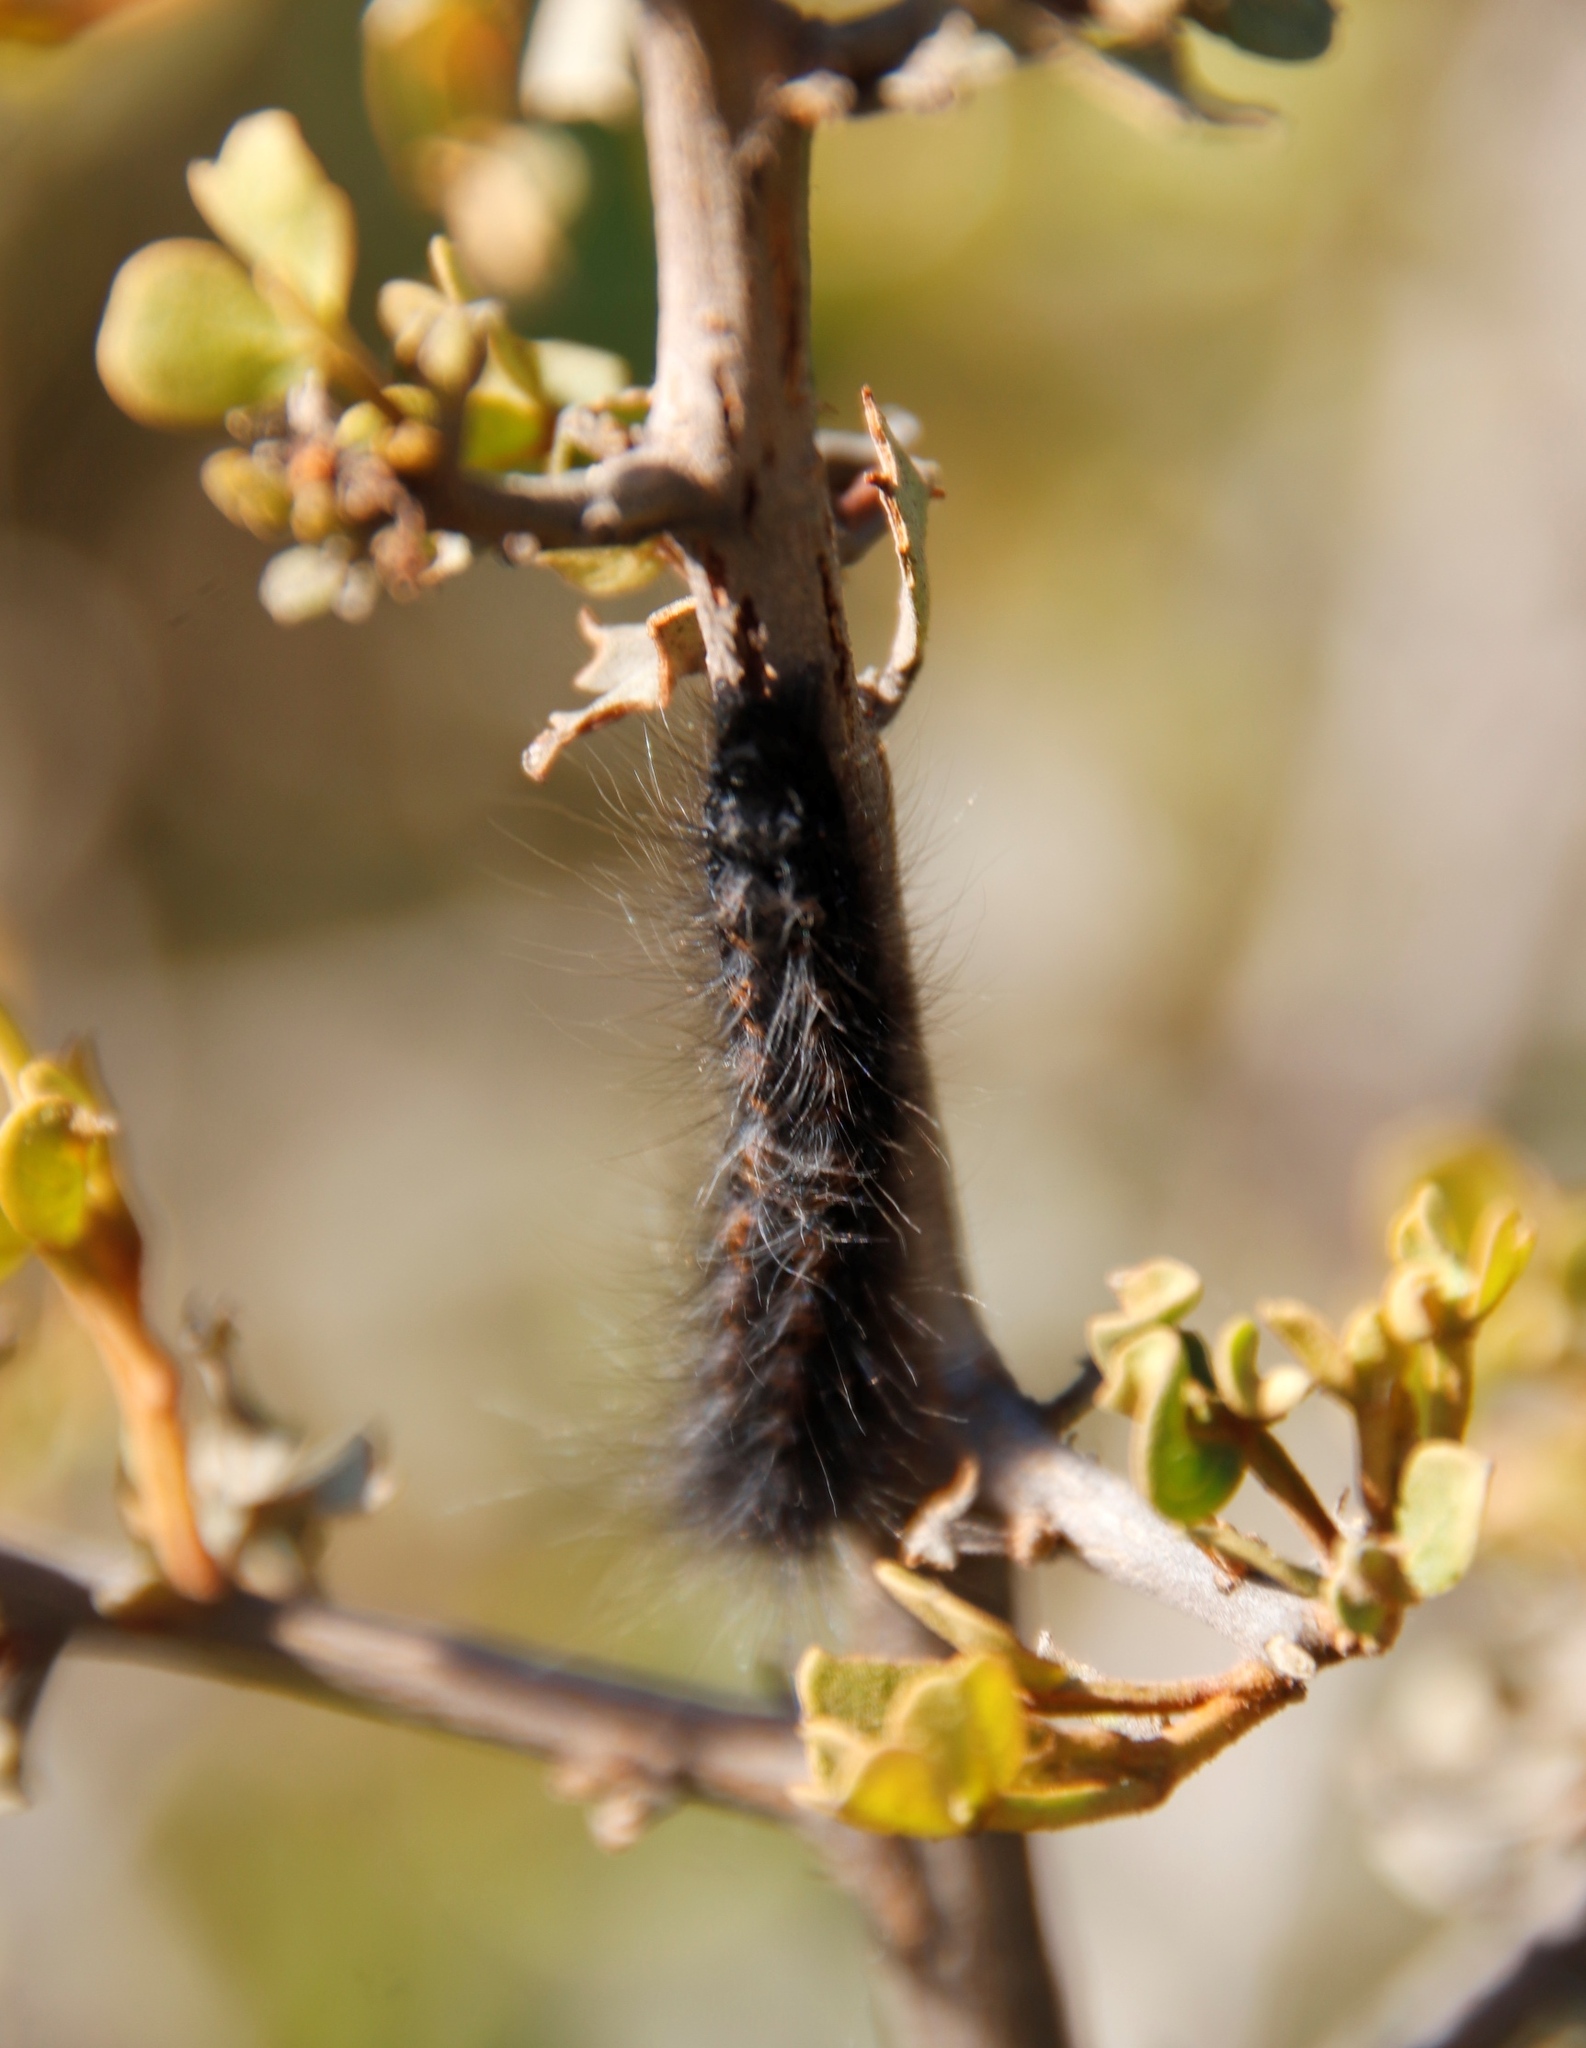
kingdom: Animalia
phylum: Arthropoda
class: Insecta
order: Lepidoptera
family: Lasiocampidae
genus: Mesocelis
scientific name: Mesocelis monticola
